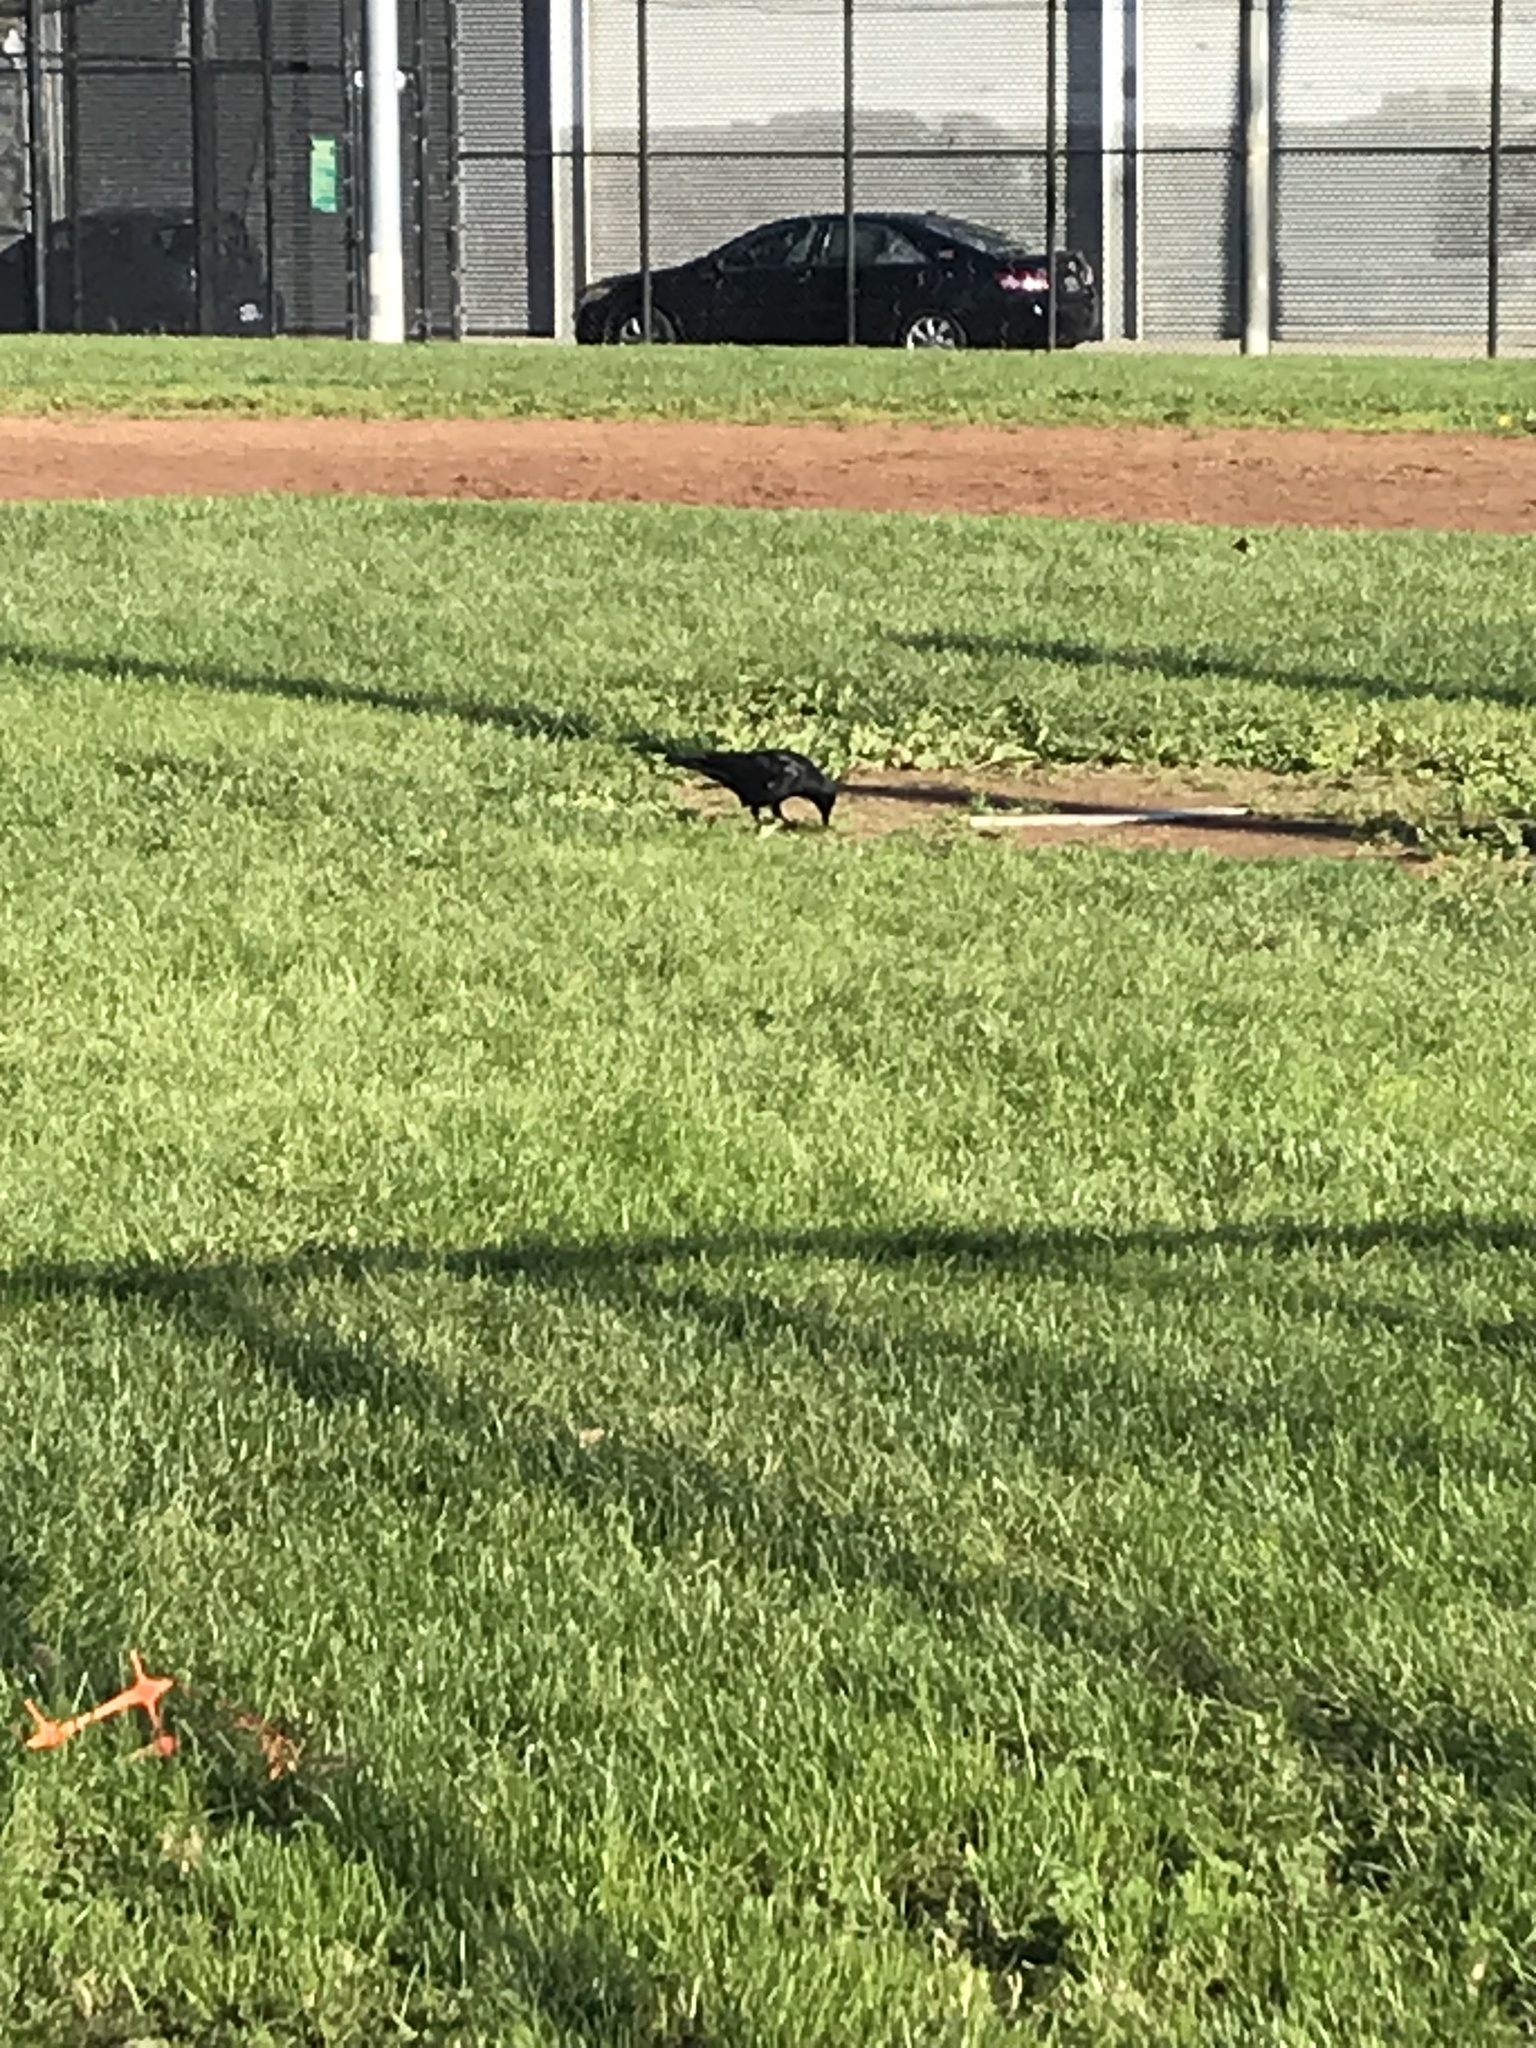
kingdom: Animalia
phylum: Chordata
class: Aves
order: Passeriformes
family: Corvidae
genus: Corvus
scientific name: Corvus brachyrhynchos
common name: American crow
